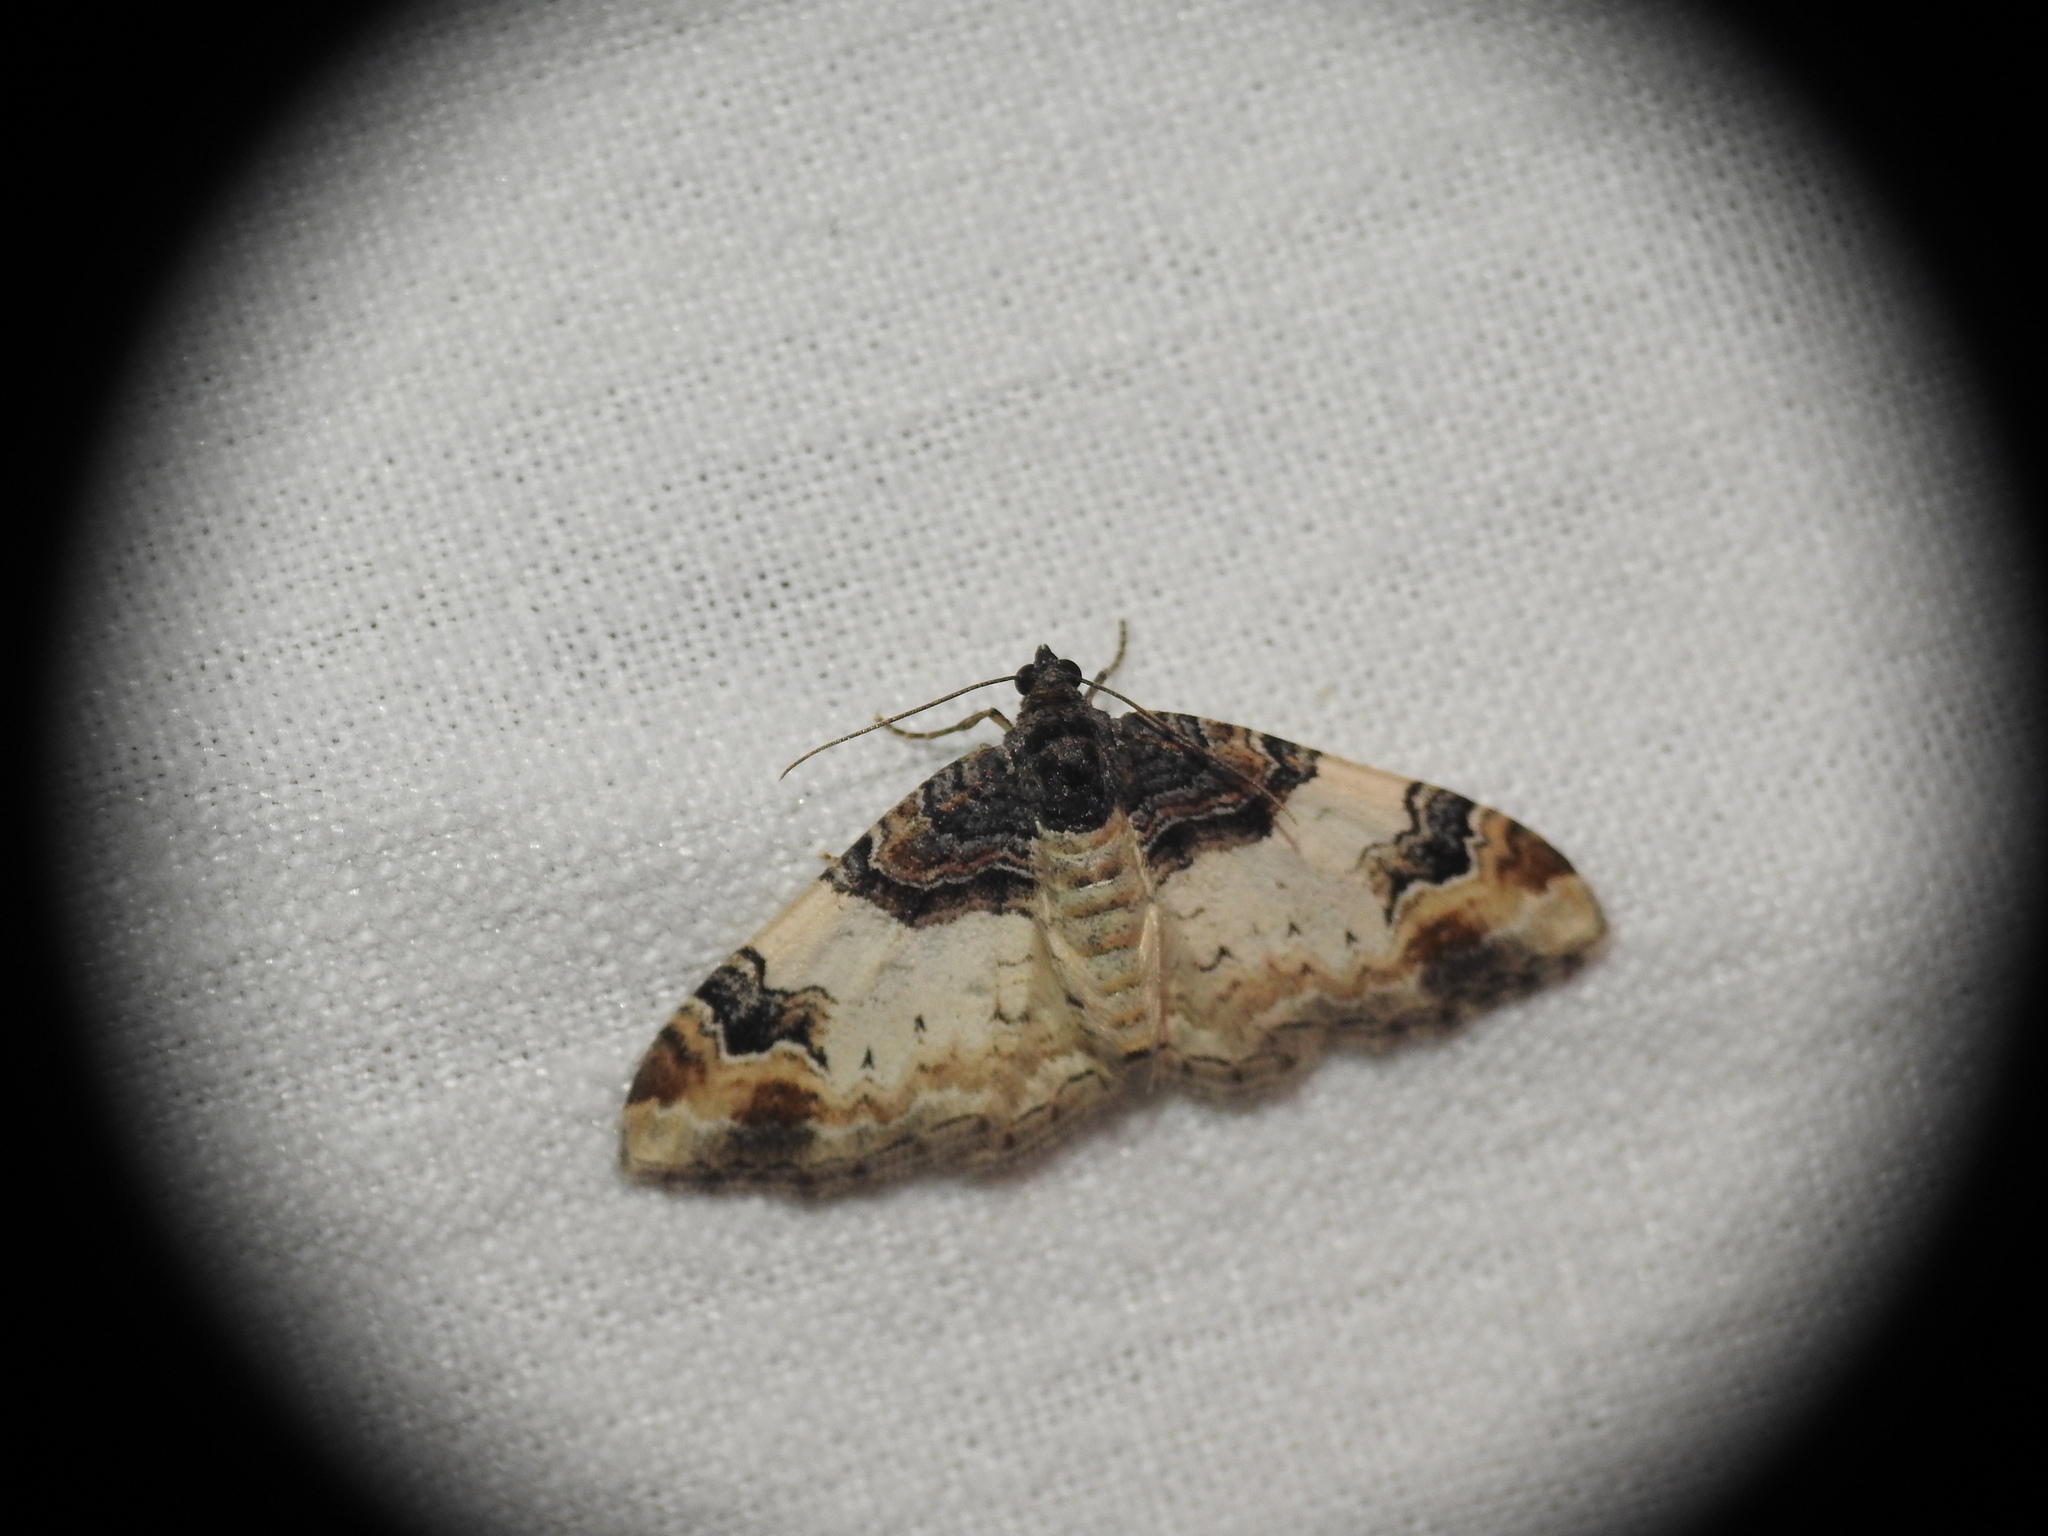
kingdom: Animalia
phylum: Arthropoda
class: Insecta
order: Lepidoptera
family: Geometridae
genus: Catarhoe
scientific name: Catarhoe cuculata
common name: Royal mantle
